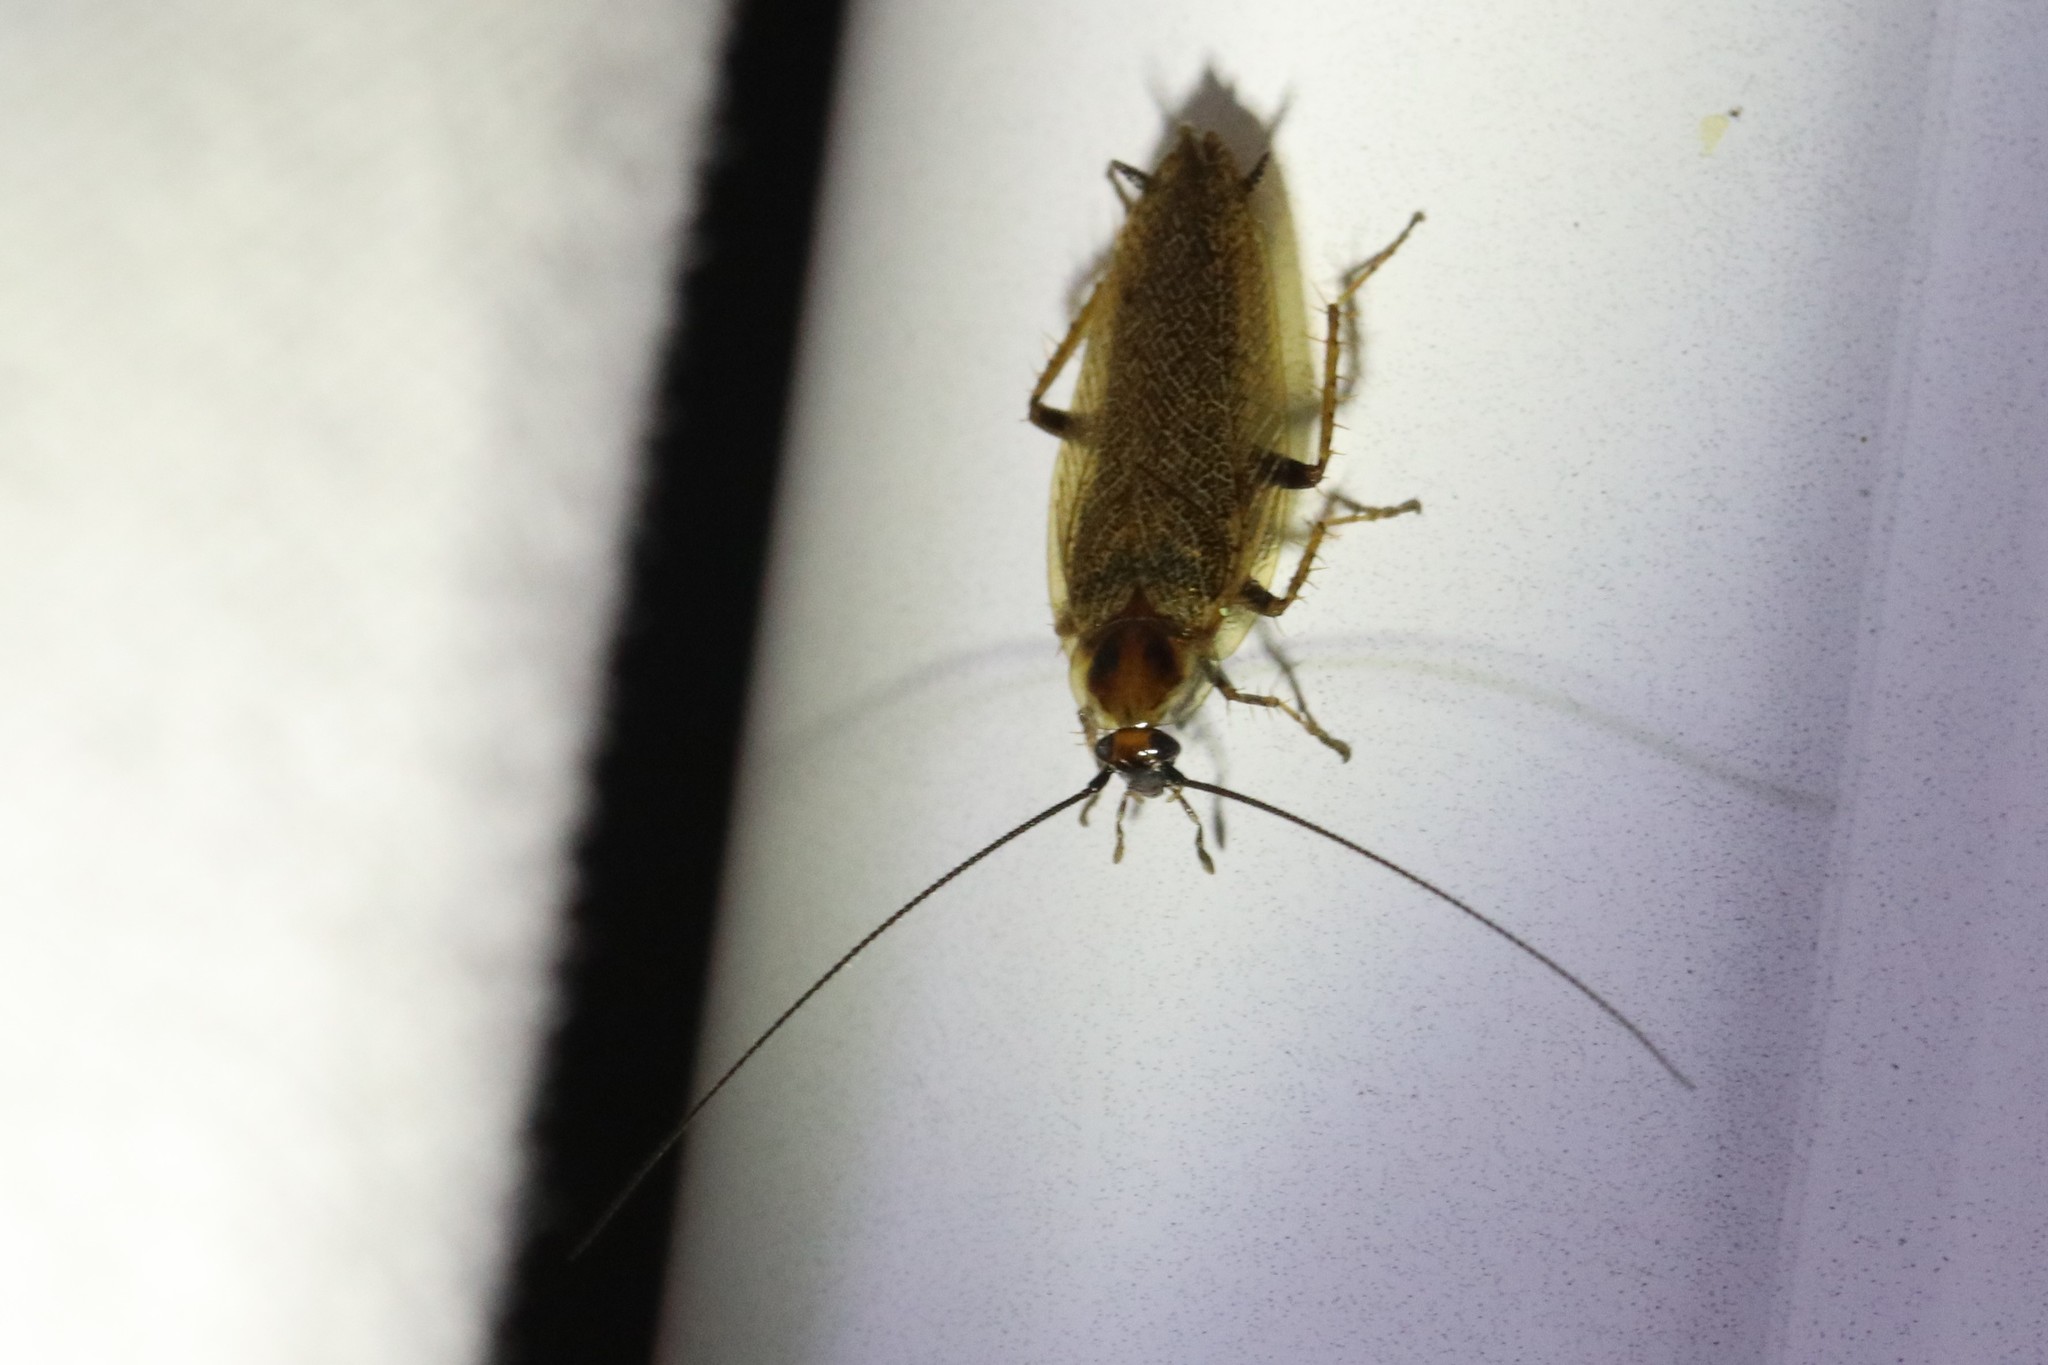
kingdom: Animalia
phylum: Arthropoda
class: Insecta
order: Blattodea
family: Ectobiidae
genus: Ectobius
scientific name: Ectobius lapponicus
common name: Dusky cockroach
